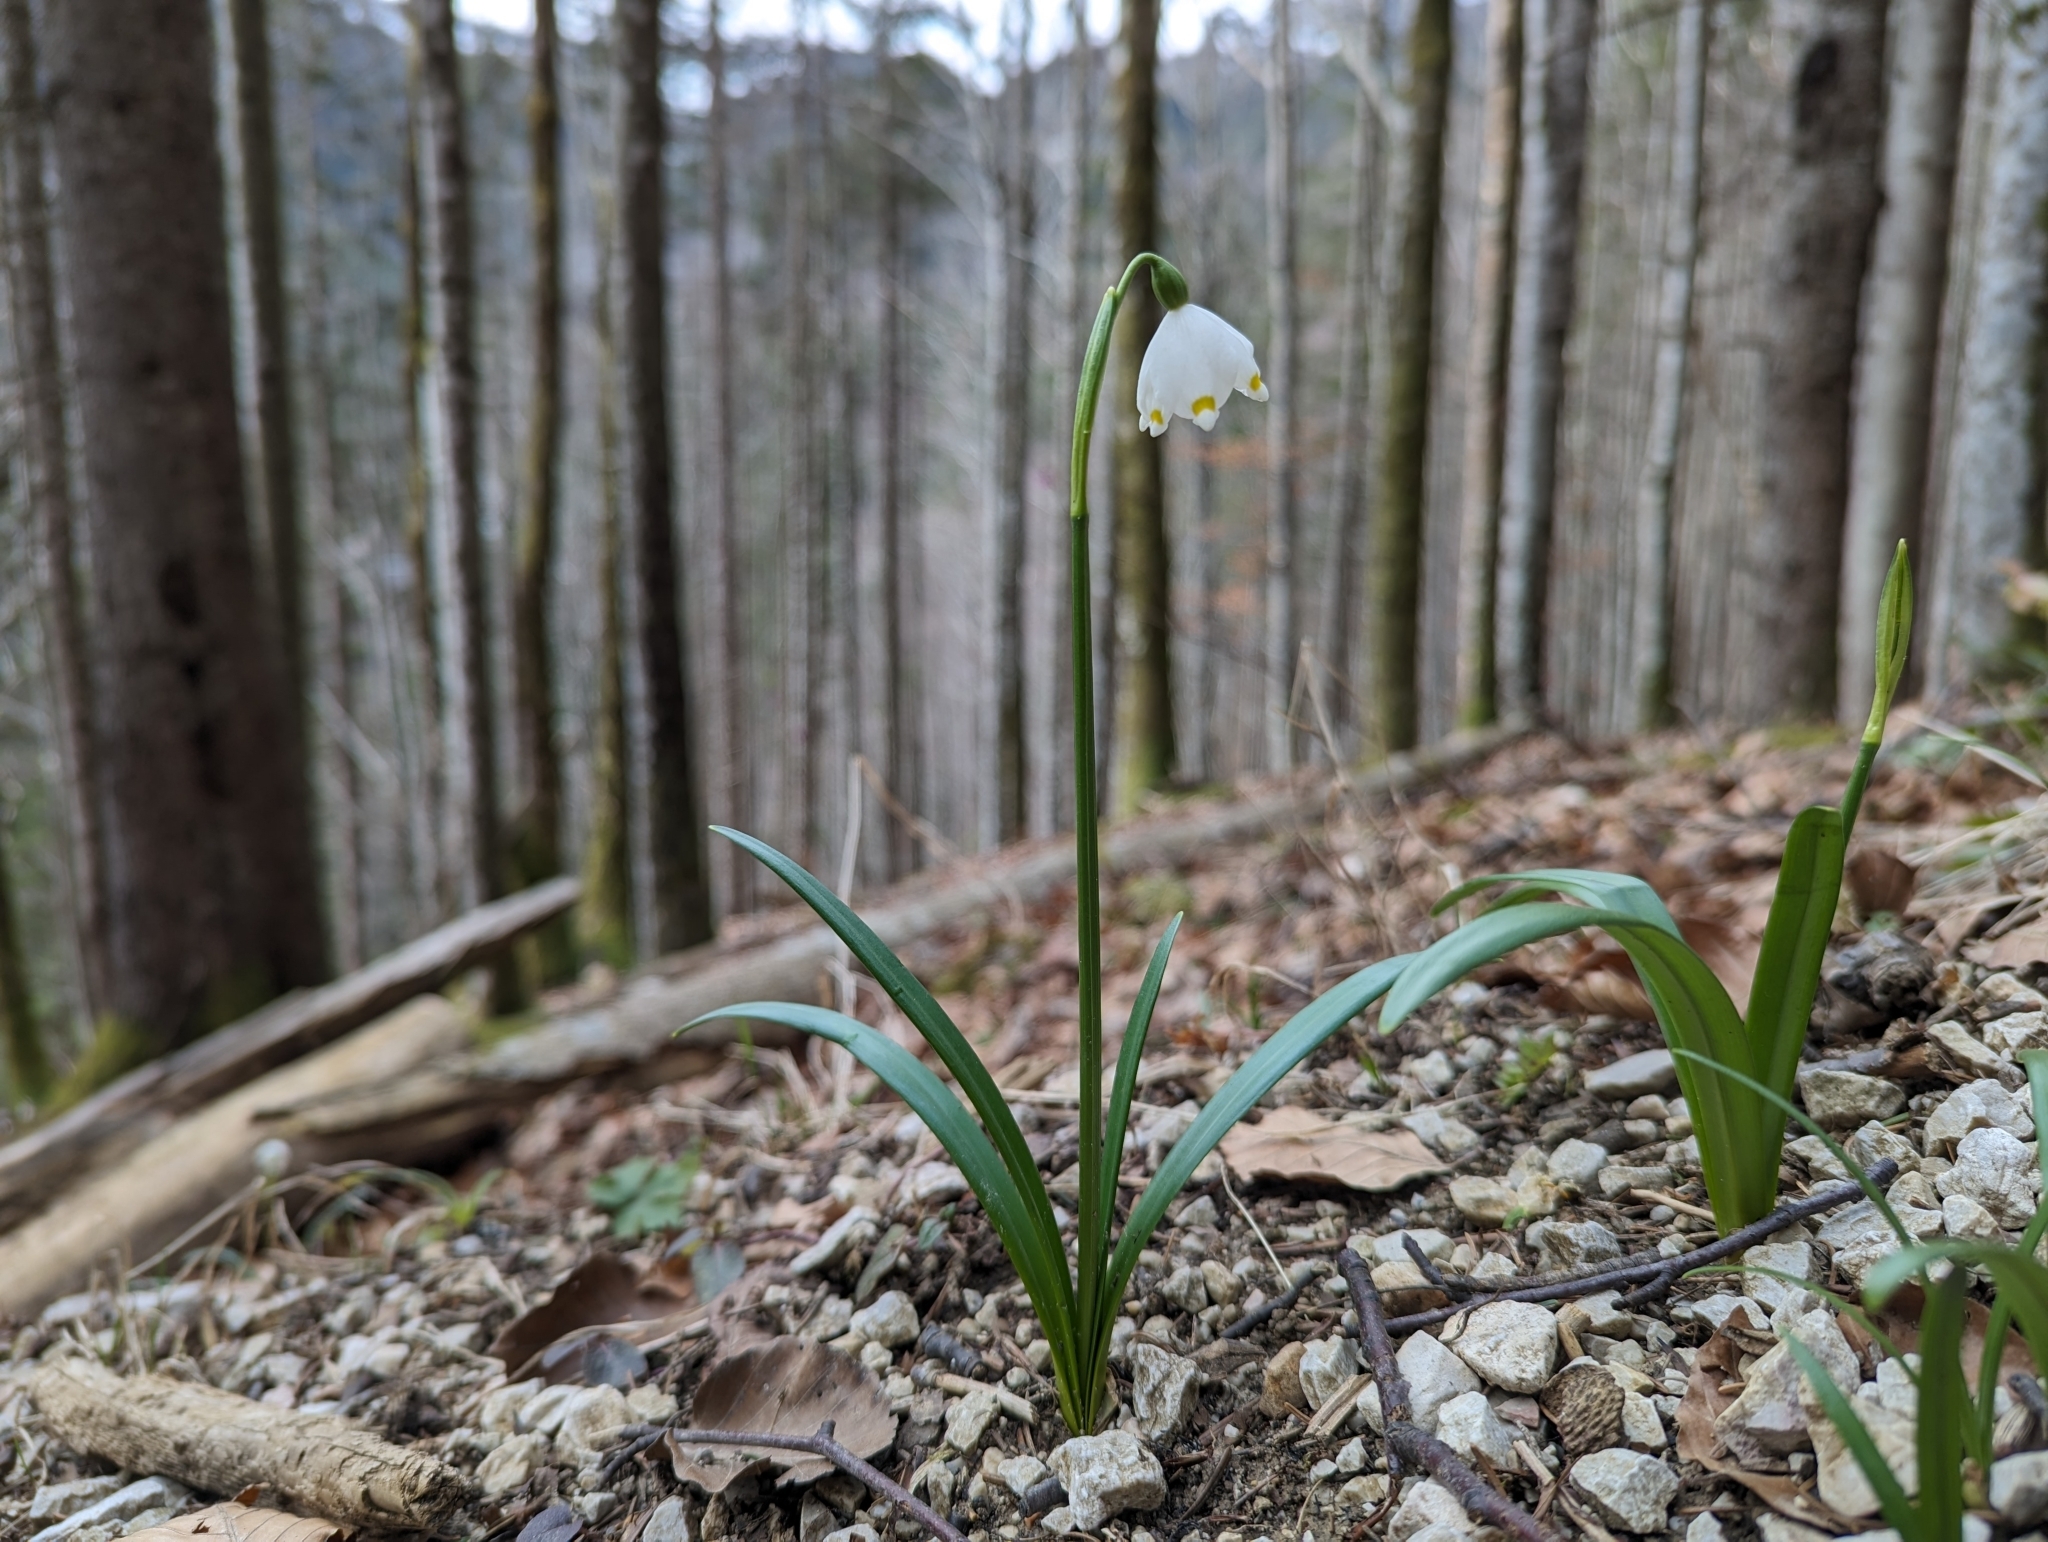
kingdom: Plantae
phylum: Tracheophyta
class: Liliopsida
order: Asparagales
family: Amaryllidaceae
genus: Leucojum
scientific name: Leucojum vernum
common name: Spring snowflake
